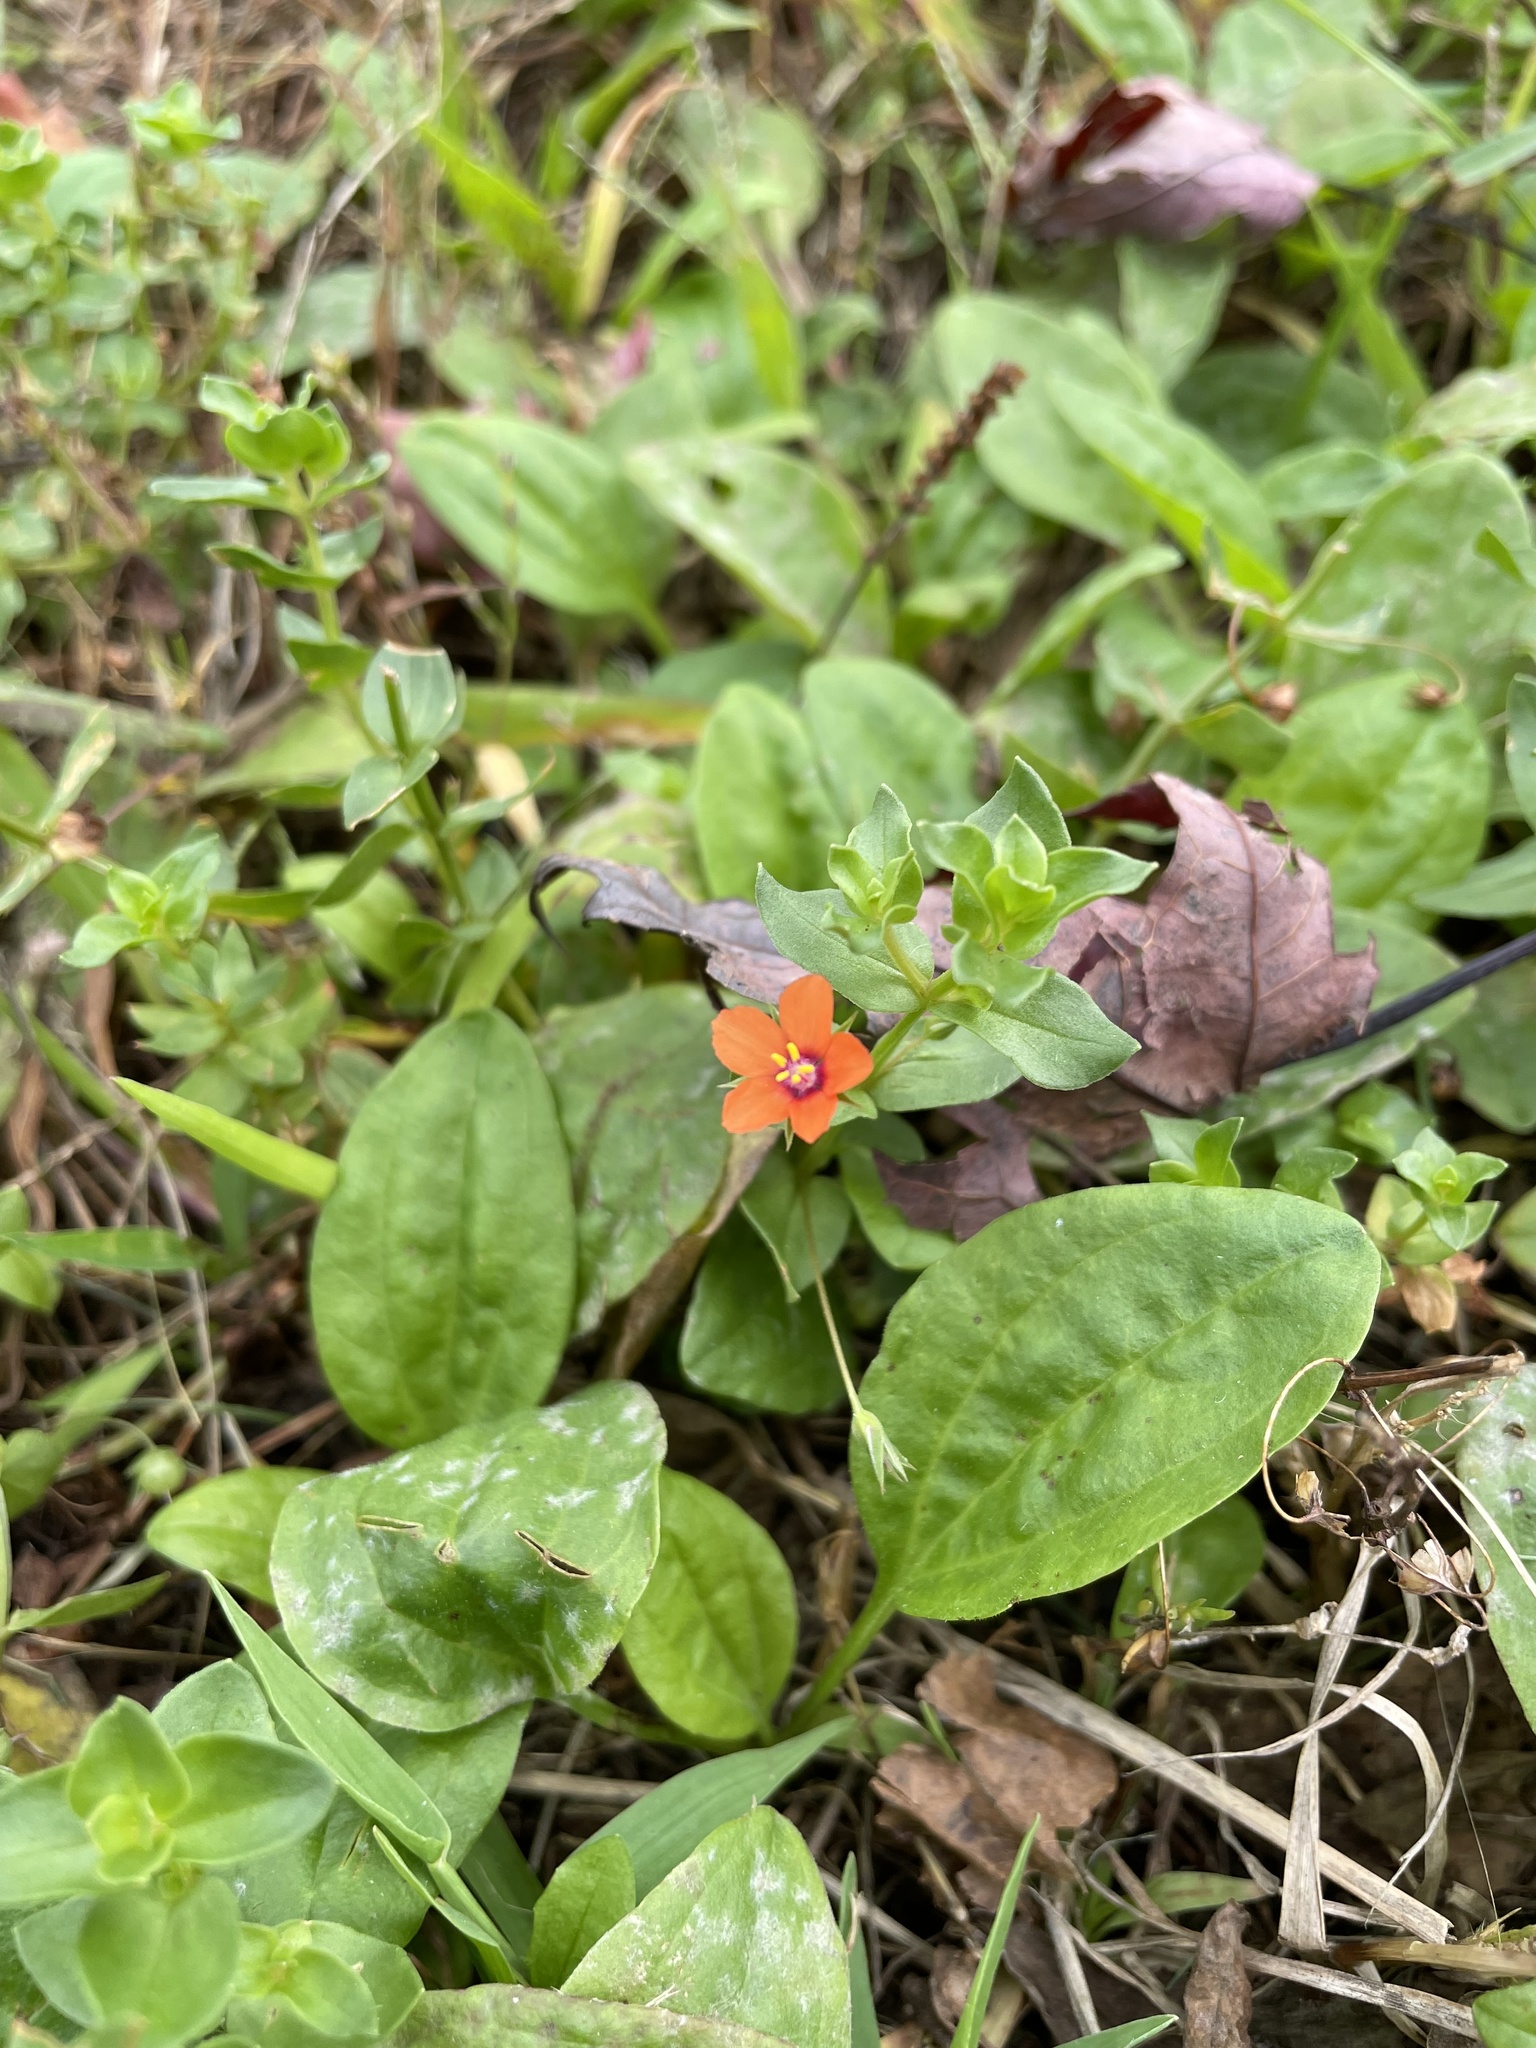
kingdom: Plantae
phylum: Tracheophyta
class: Magnoliopsida
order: Ericales
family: Primulaceae
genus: Lysimachia
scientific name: Lysimachia arvensis
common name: Scarlet pimpernel
